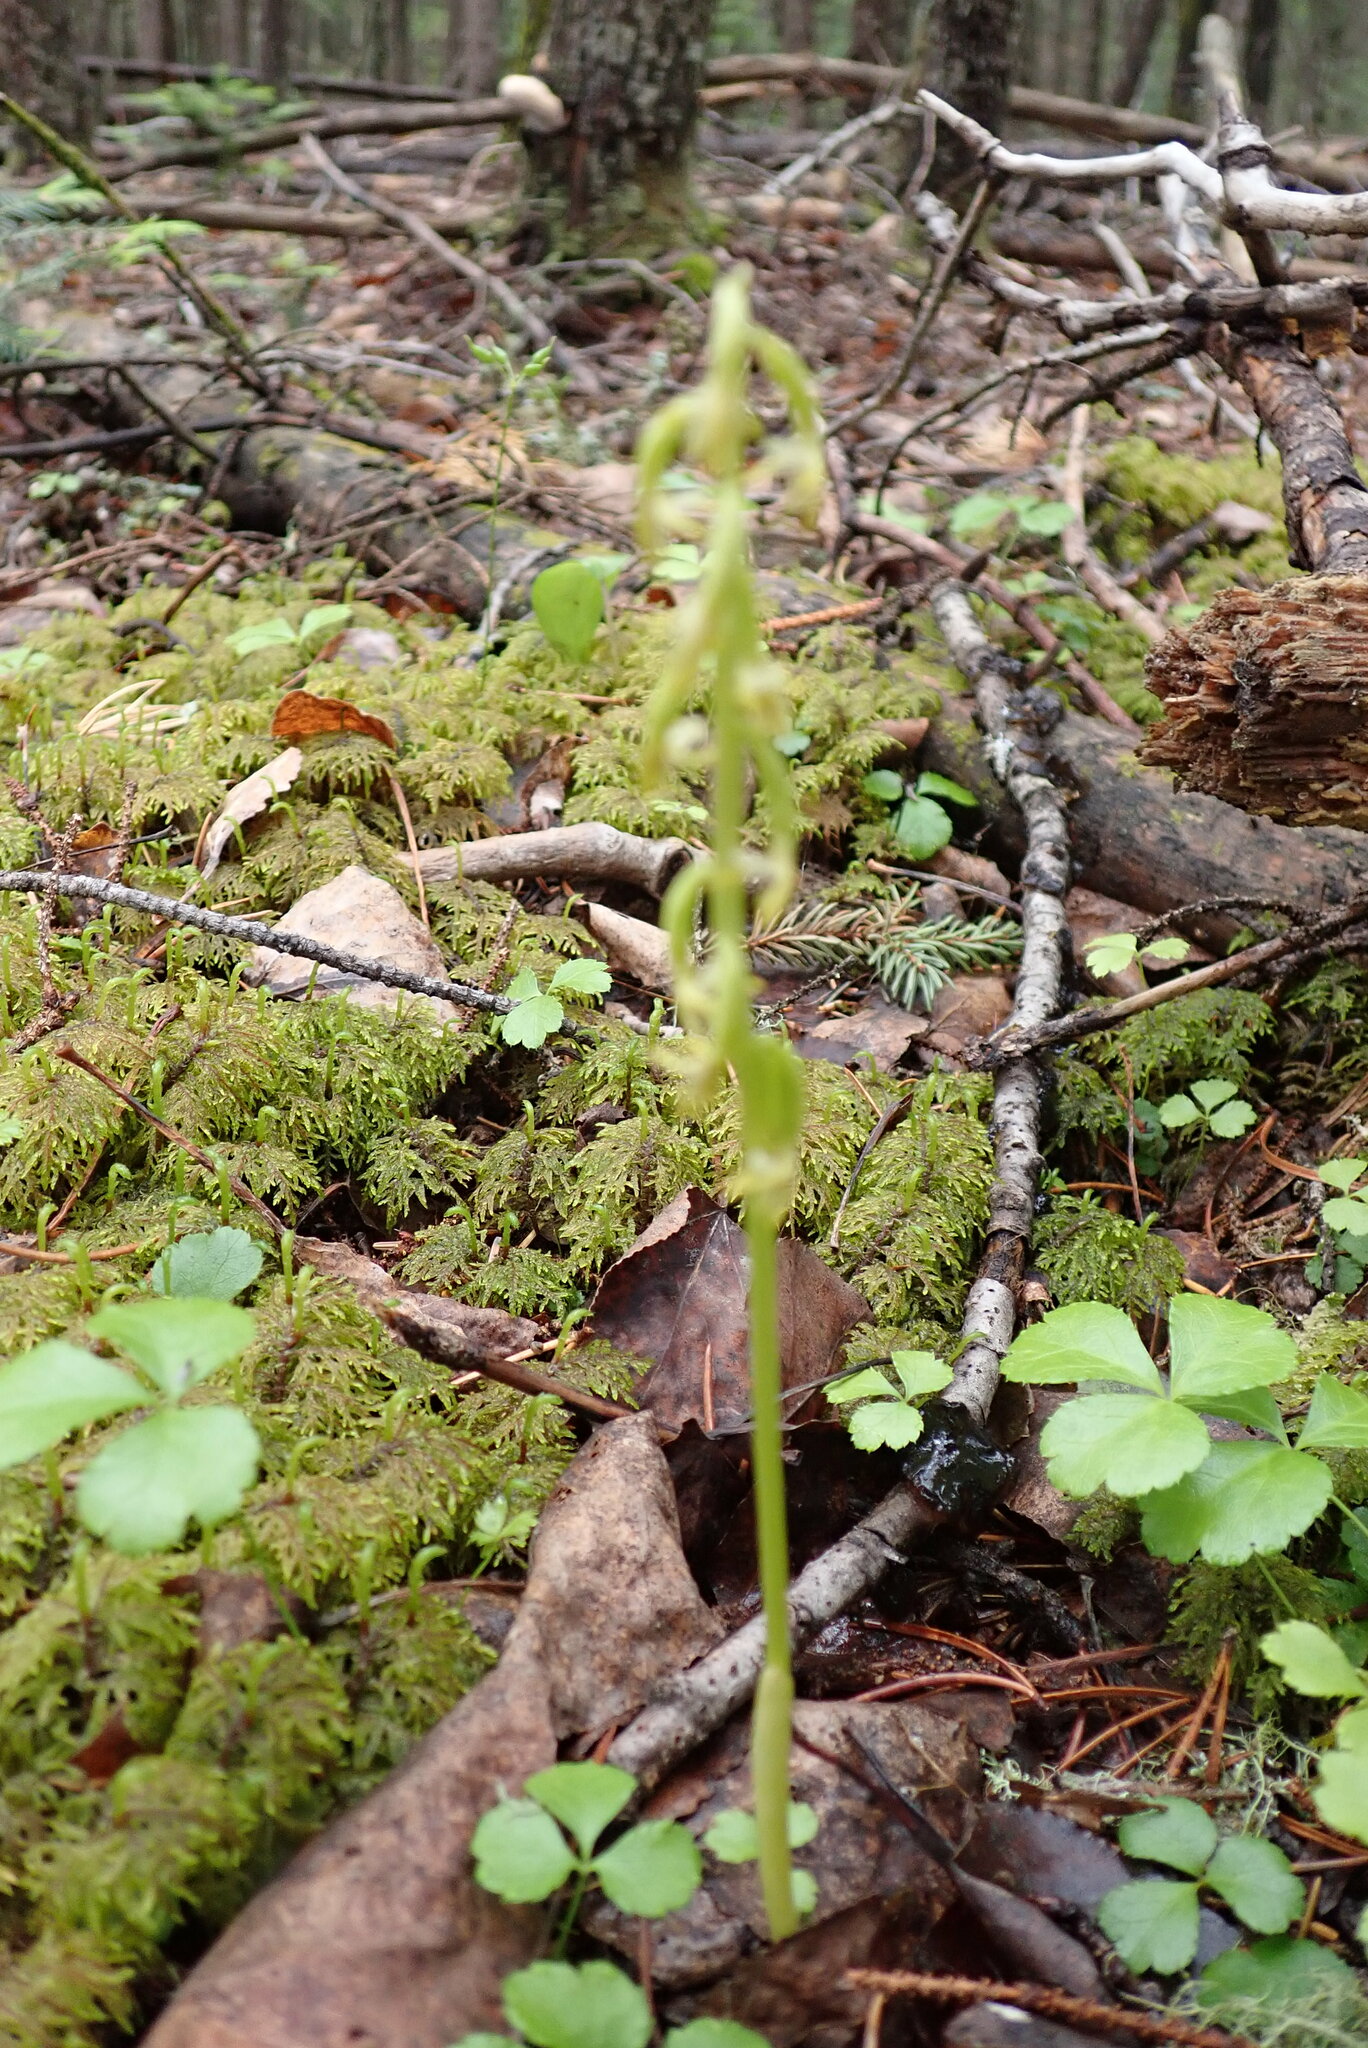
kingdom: Plantae
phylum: Tracheophyta
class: Liliopsida
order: Asparagales
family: Orchidaceae
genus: Corallorhiza
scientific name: Corallorhiza trifida
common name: Yellow coralroot
